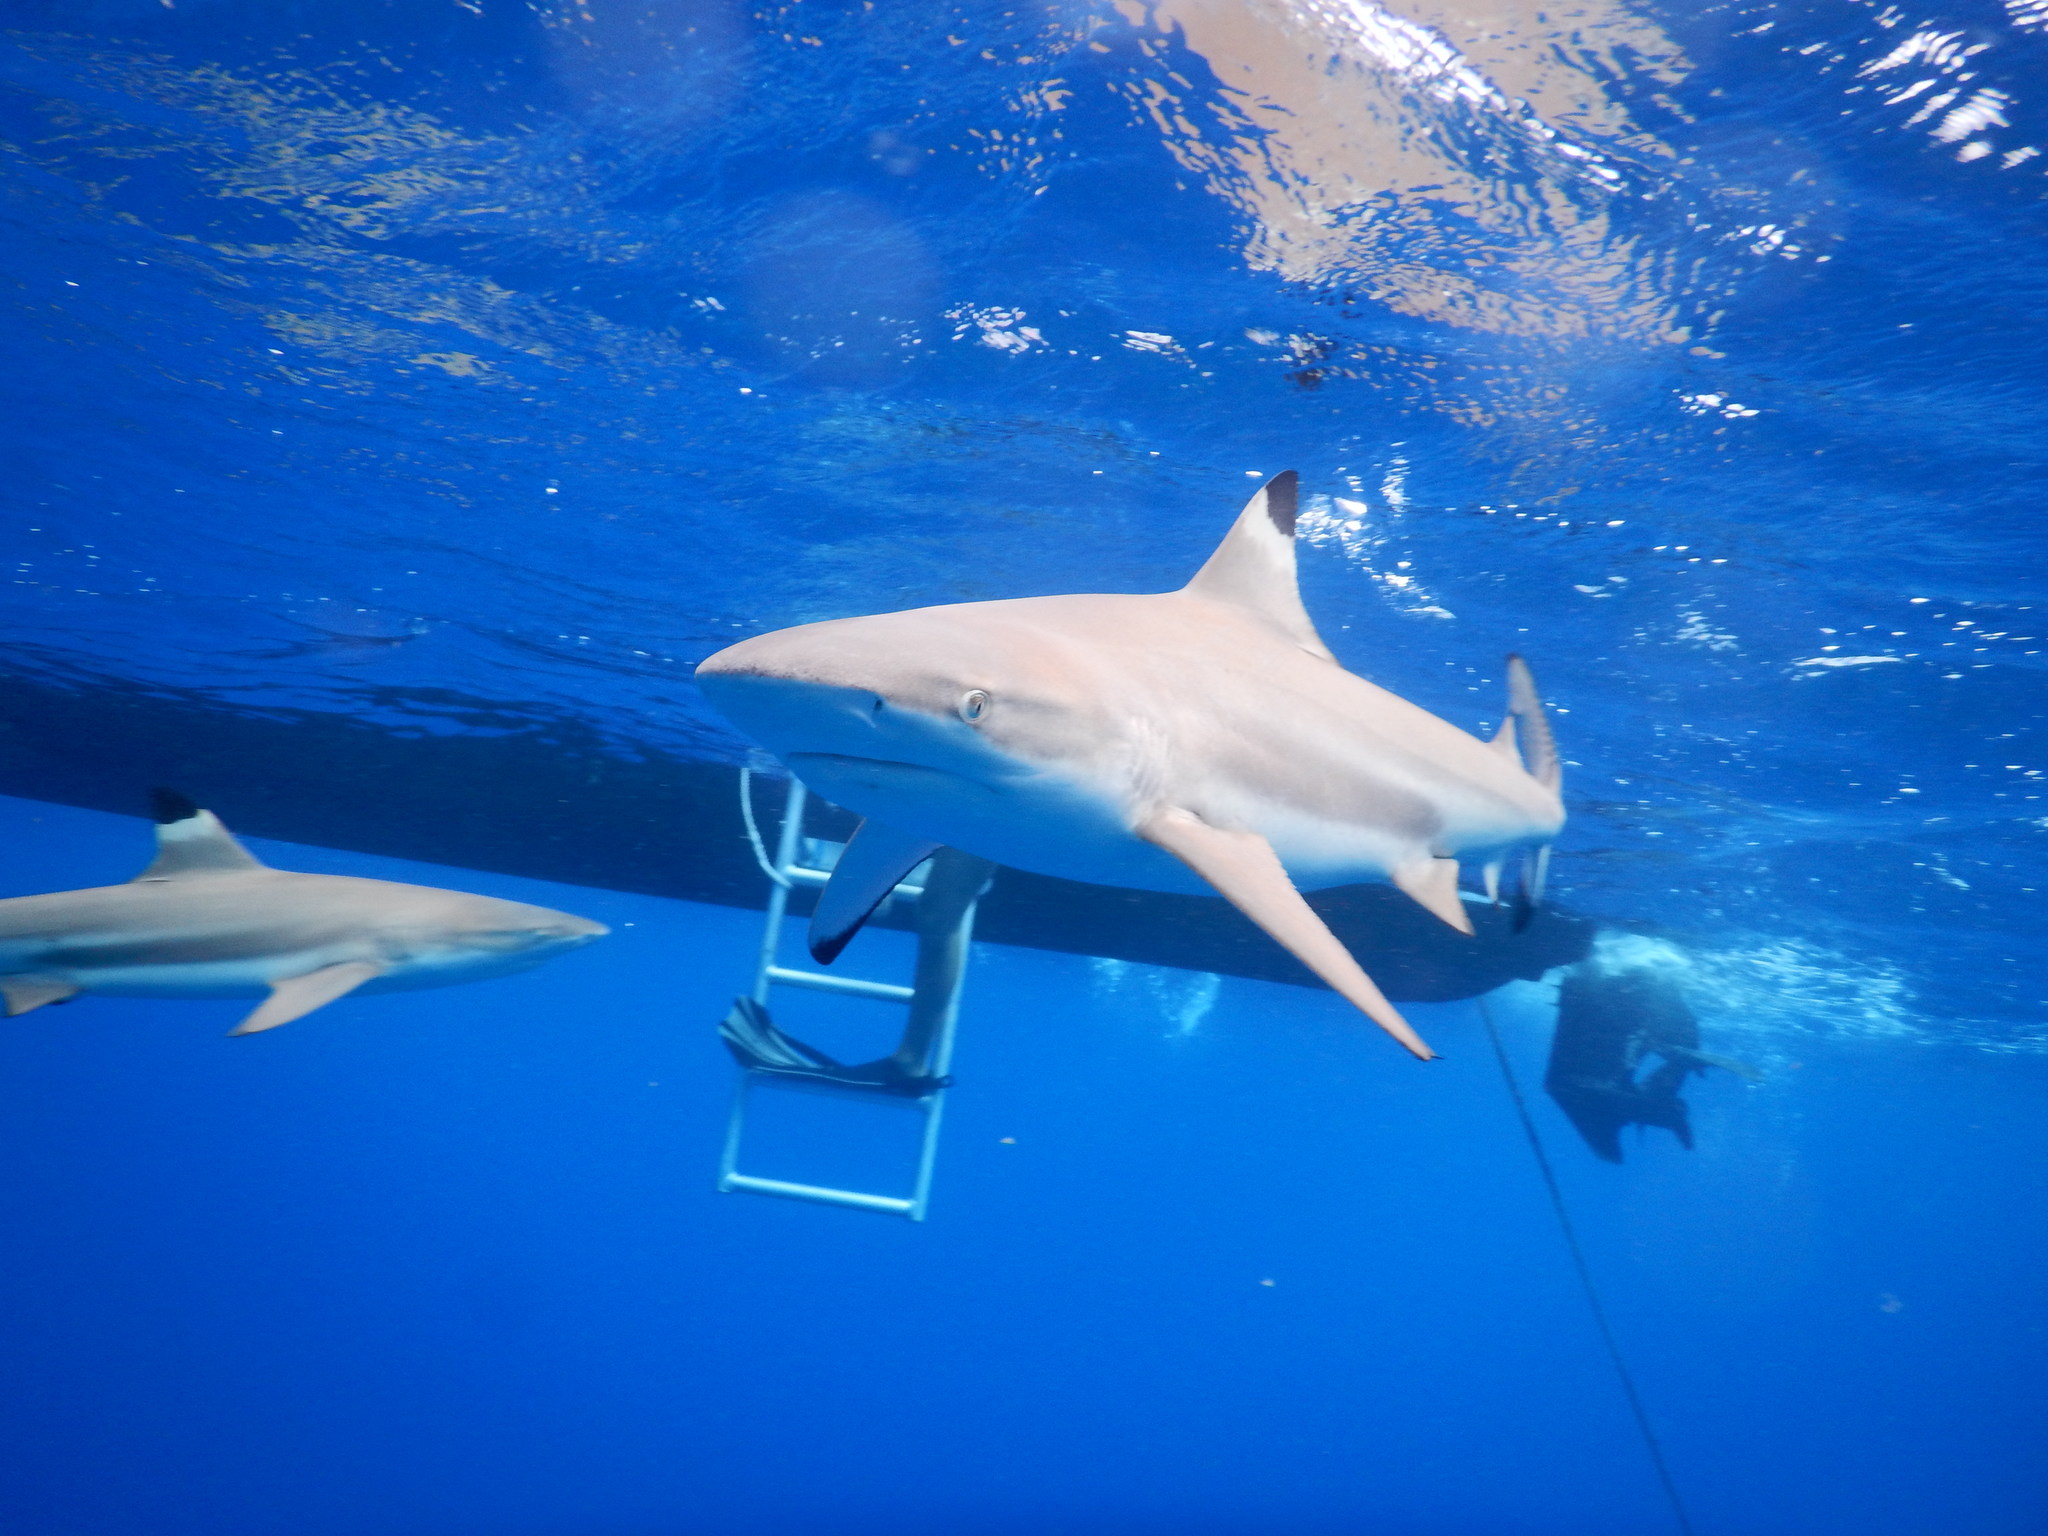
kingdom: Animalia
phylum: Chordata
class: Elasmobranchii
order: Carcharhiniformes
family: Carcharhinidae
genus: Carcharhinus
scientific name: Carcharhinus melanopterus
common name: Blacktip reef shark
